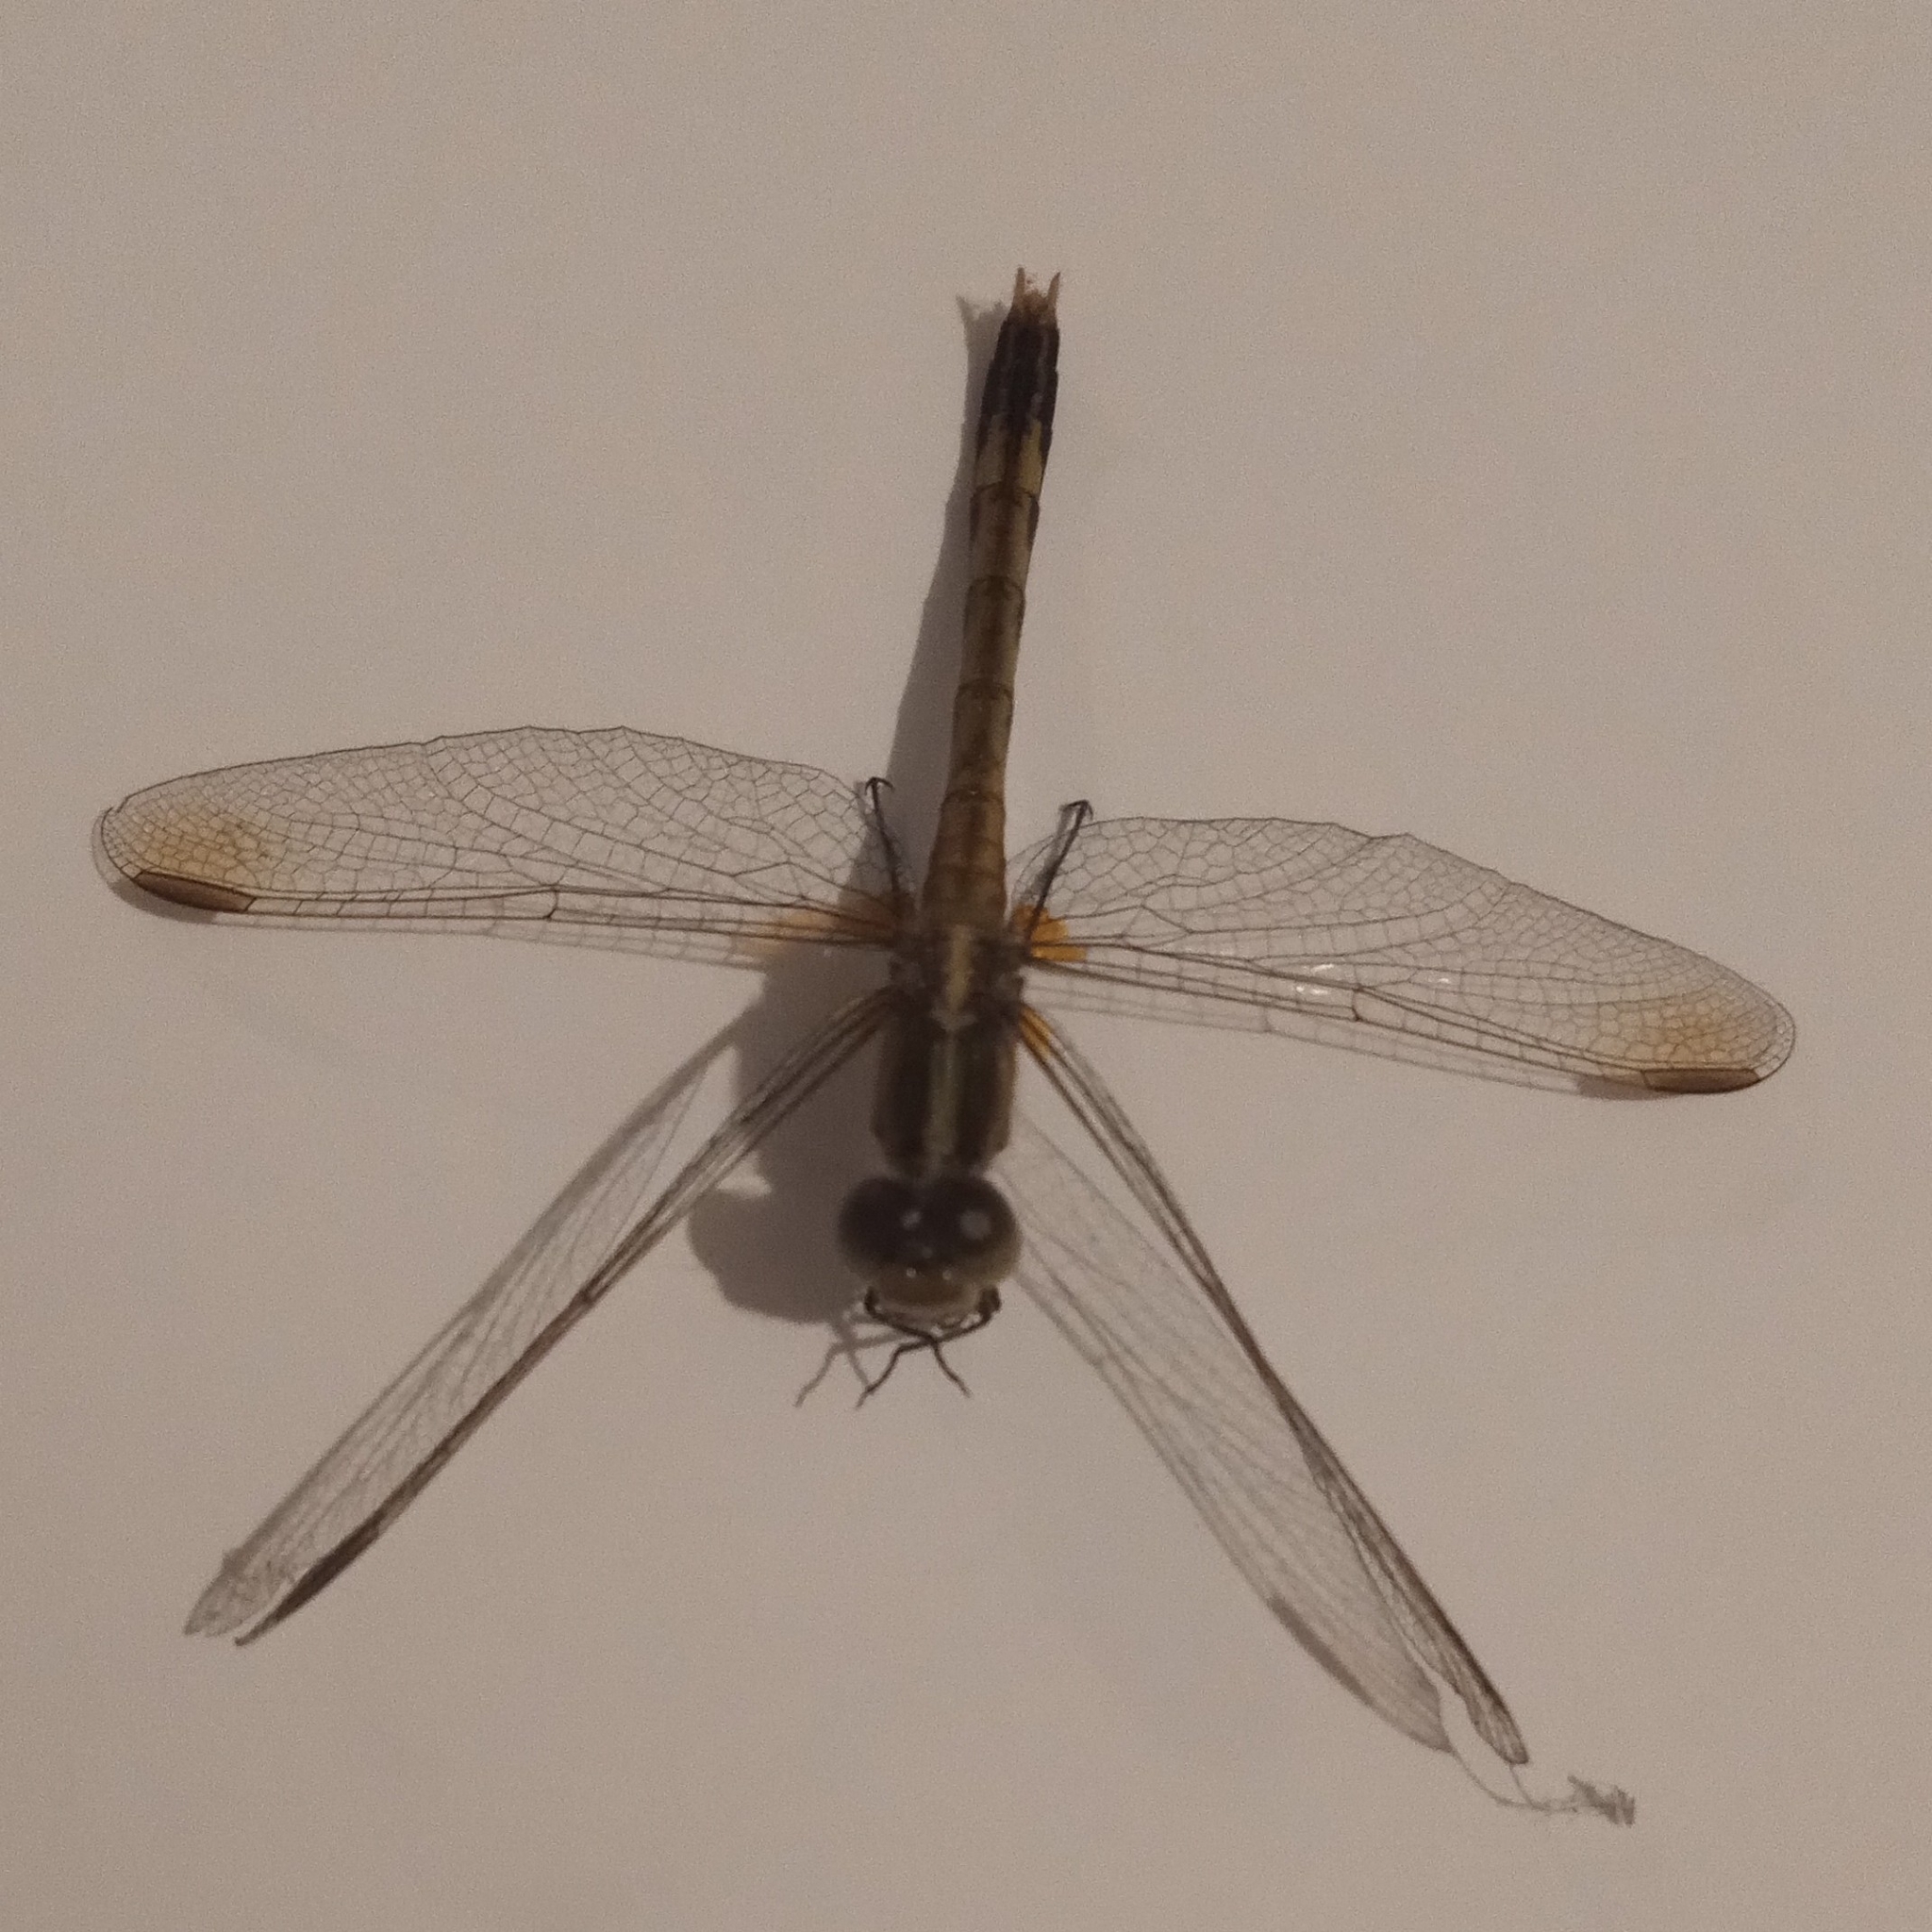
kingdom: Animalia
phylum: Arthropoda
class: Insecta
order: Odonata
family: Libellulidae
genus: Erythrodiplax
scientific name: Erythrodiplax nigricans
